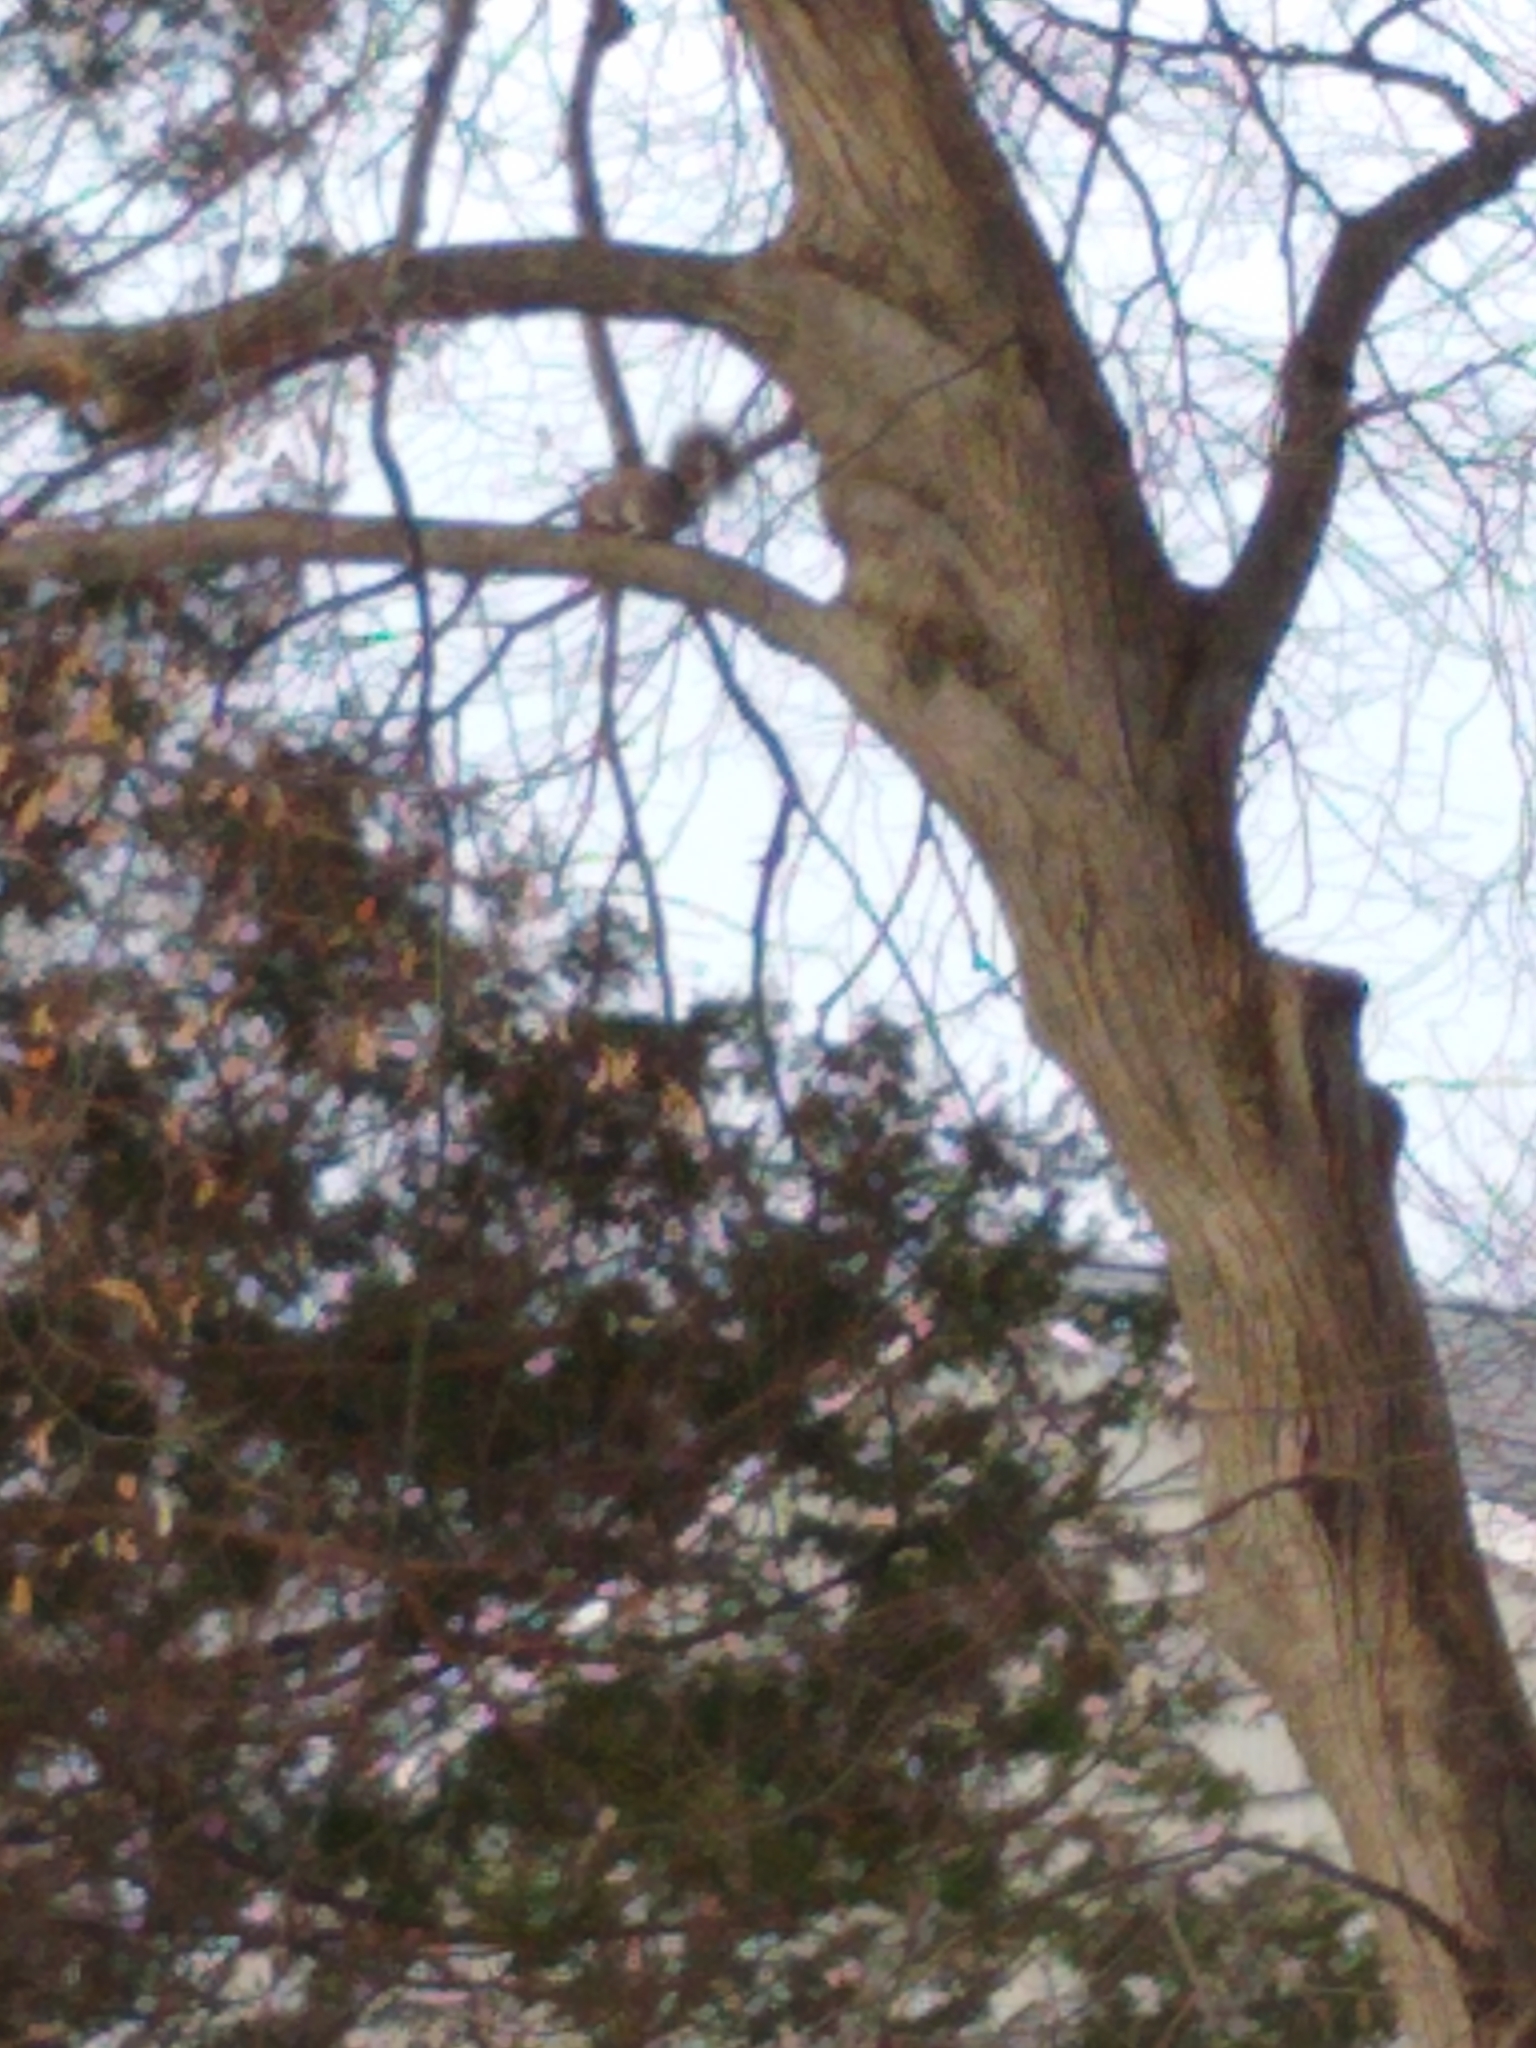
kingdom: Animalia
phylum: Chordata
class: Mammalia
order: Rodentia
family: Sciuridae
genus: Sciurus
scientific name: Sciurus carolinensis
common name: Eastern gray squirrel
